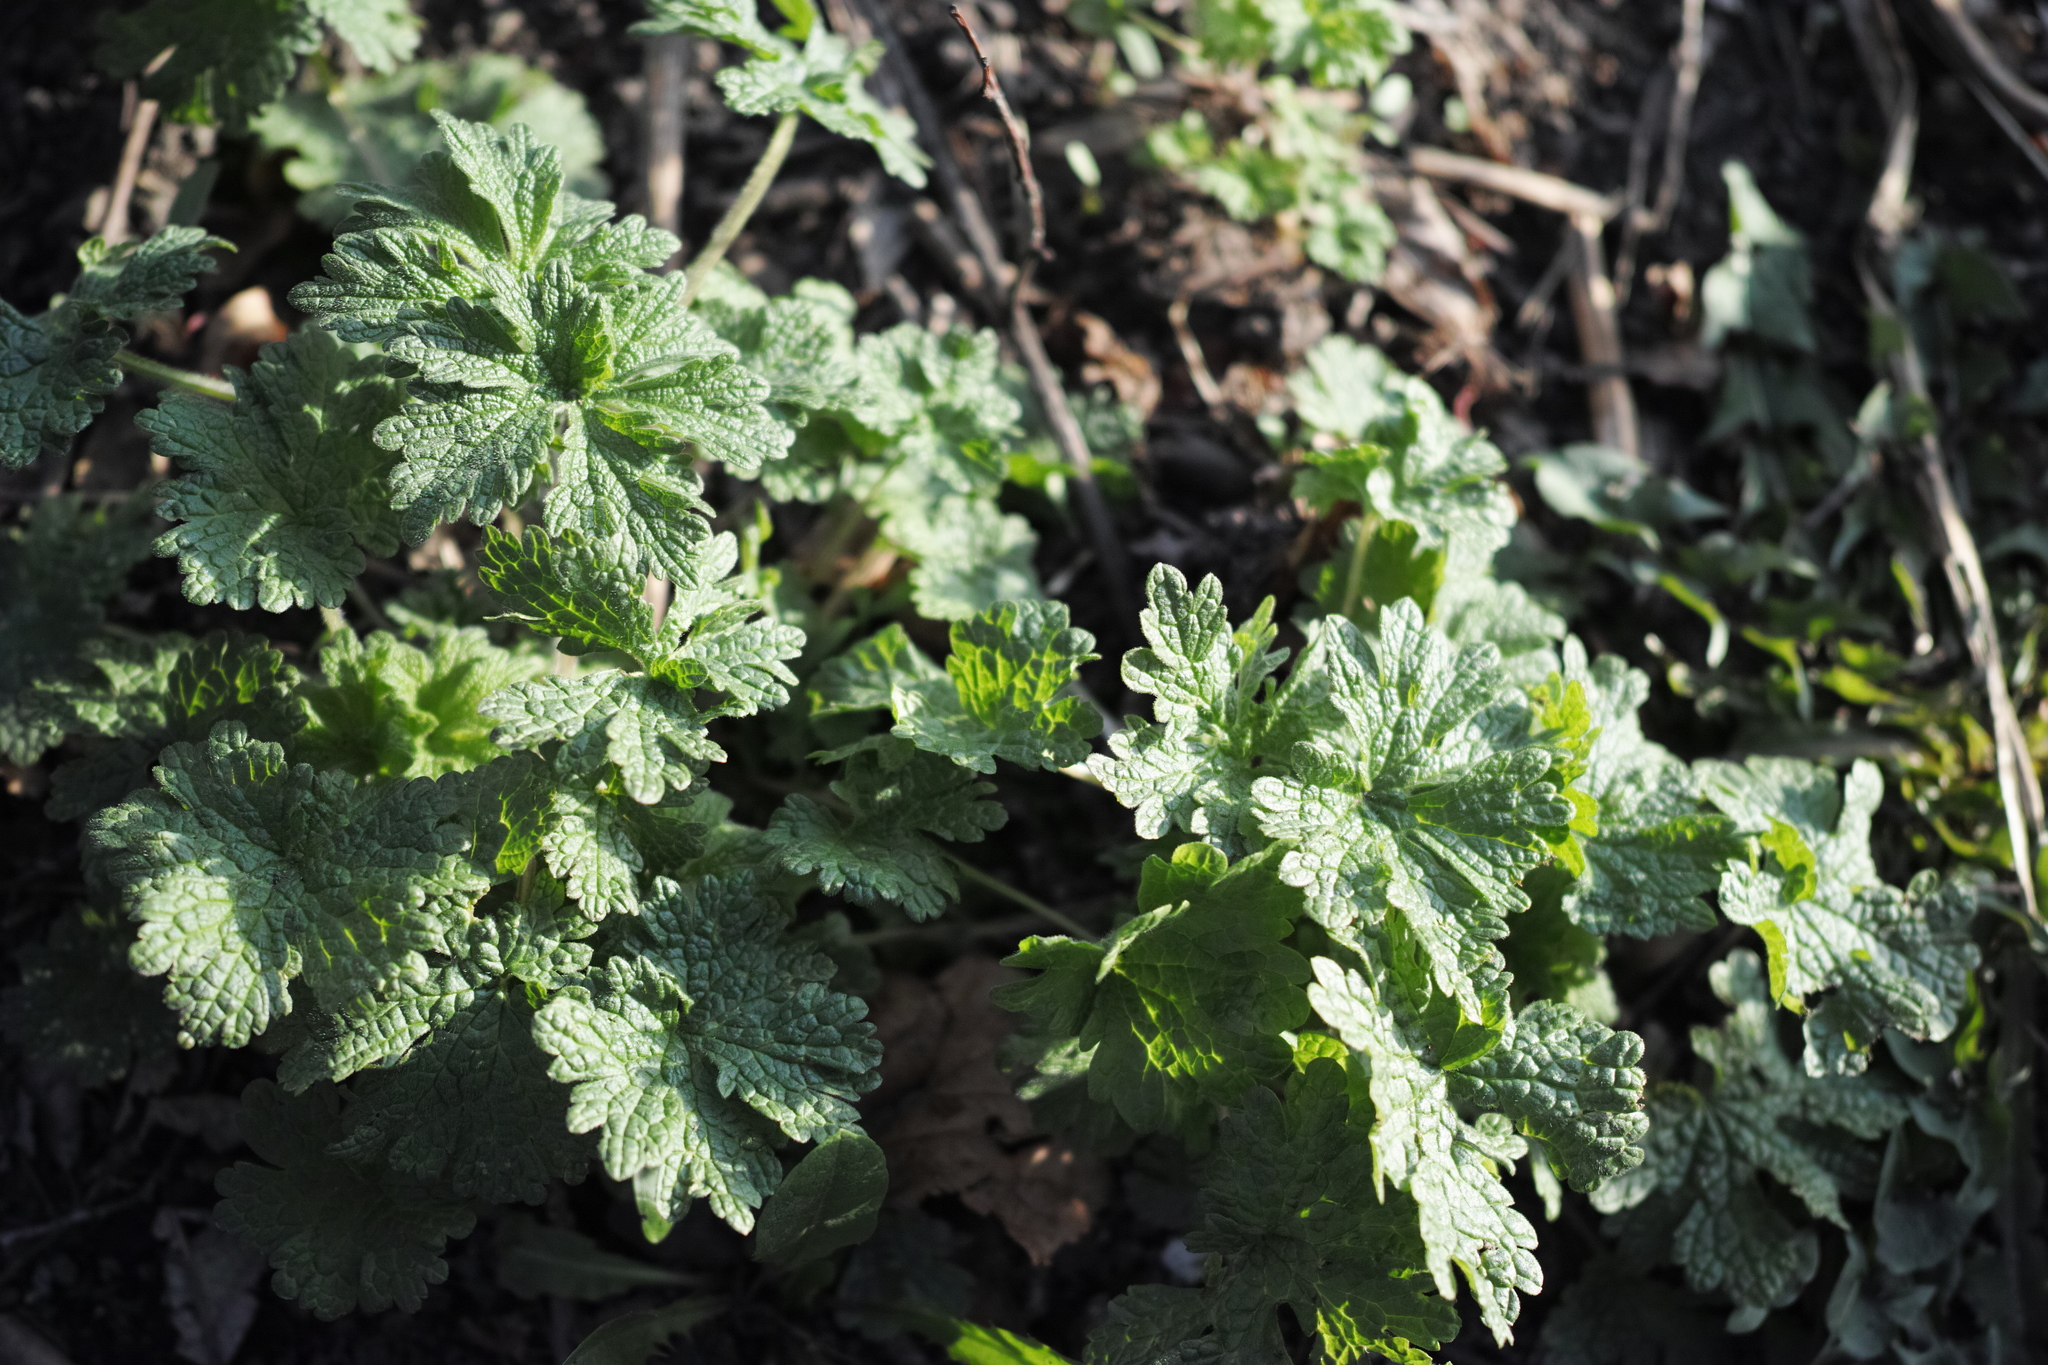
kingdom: Plantae
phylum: Tracheophyta
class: Magnoliopsida
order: Lamiales
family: Lamiaceae
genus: Leonurus
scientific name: Leonurus quinquelobatus
